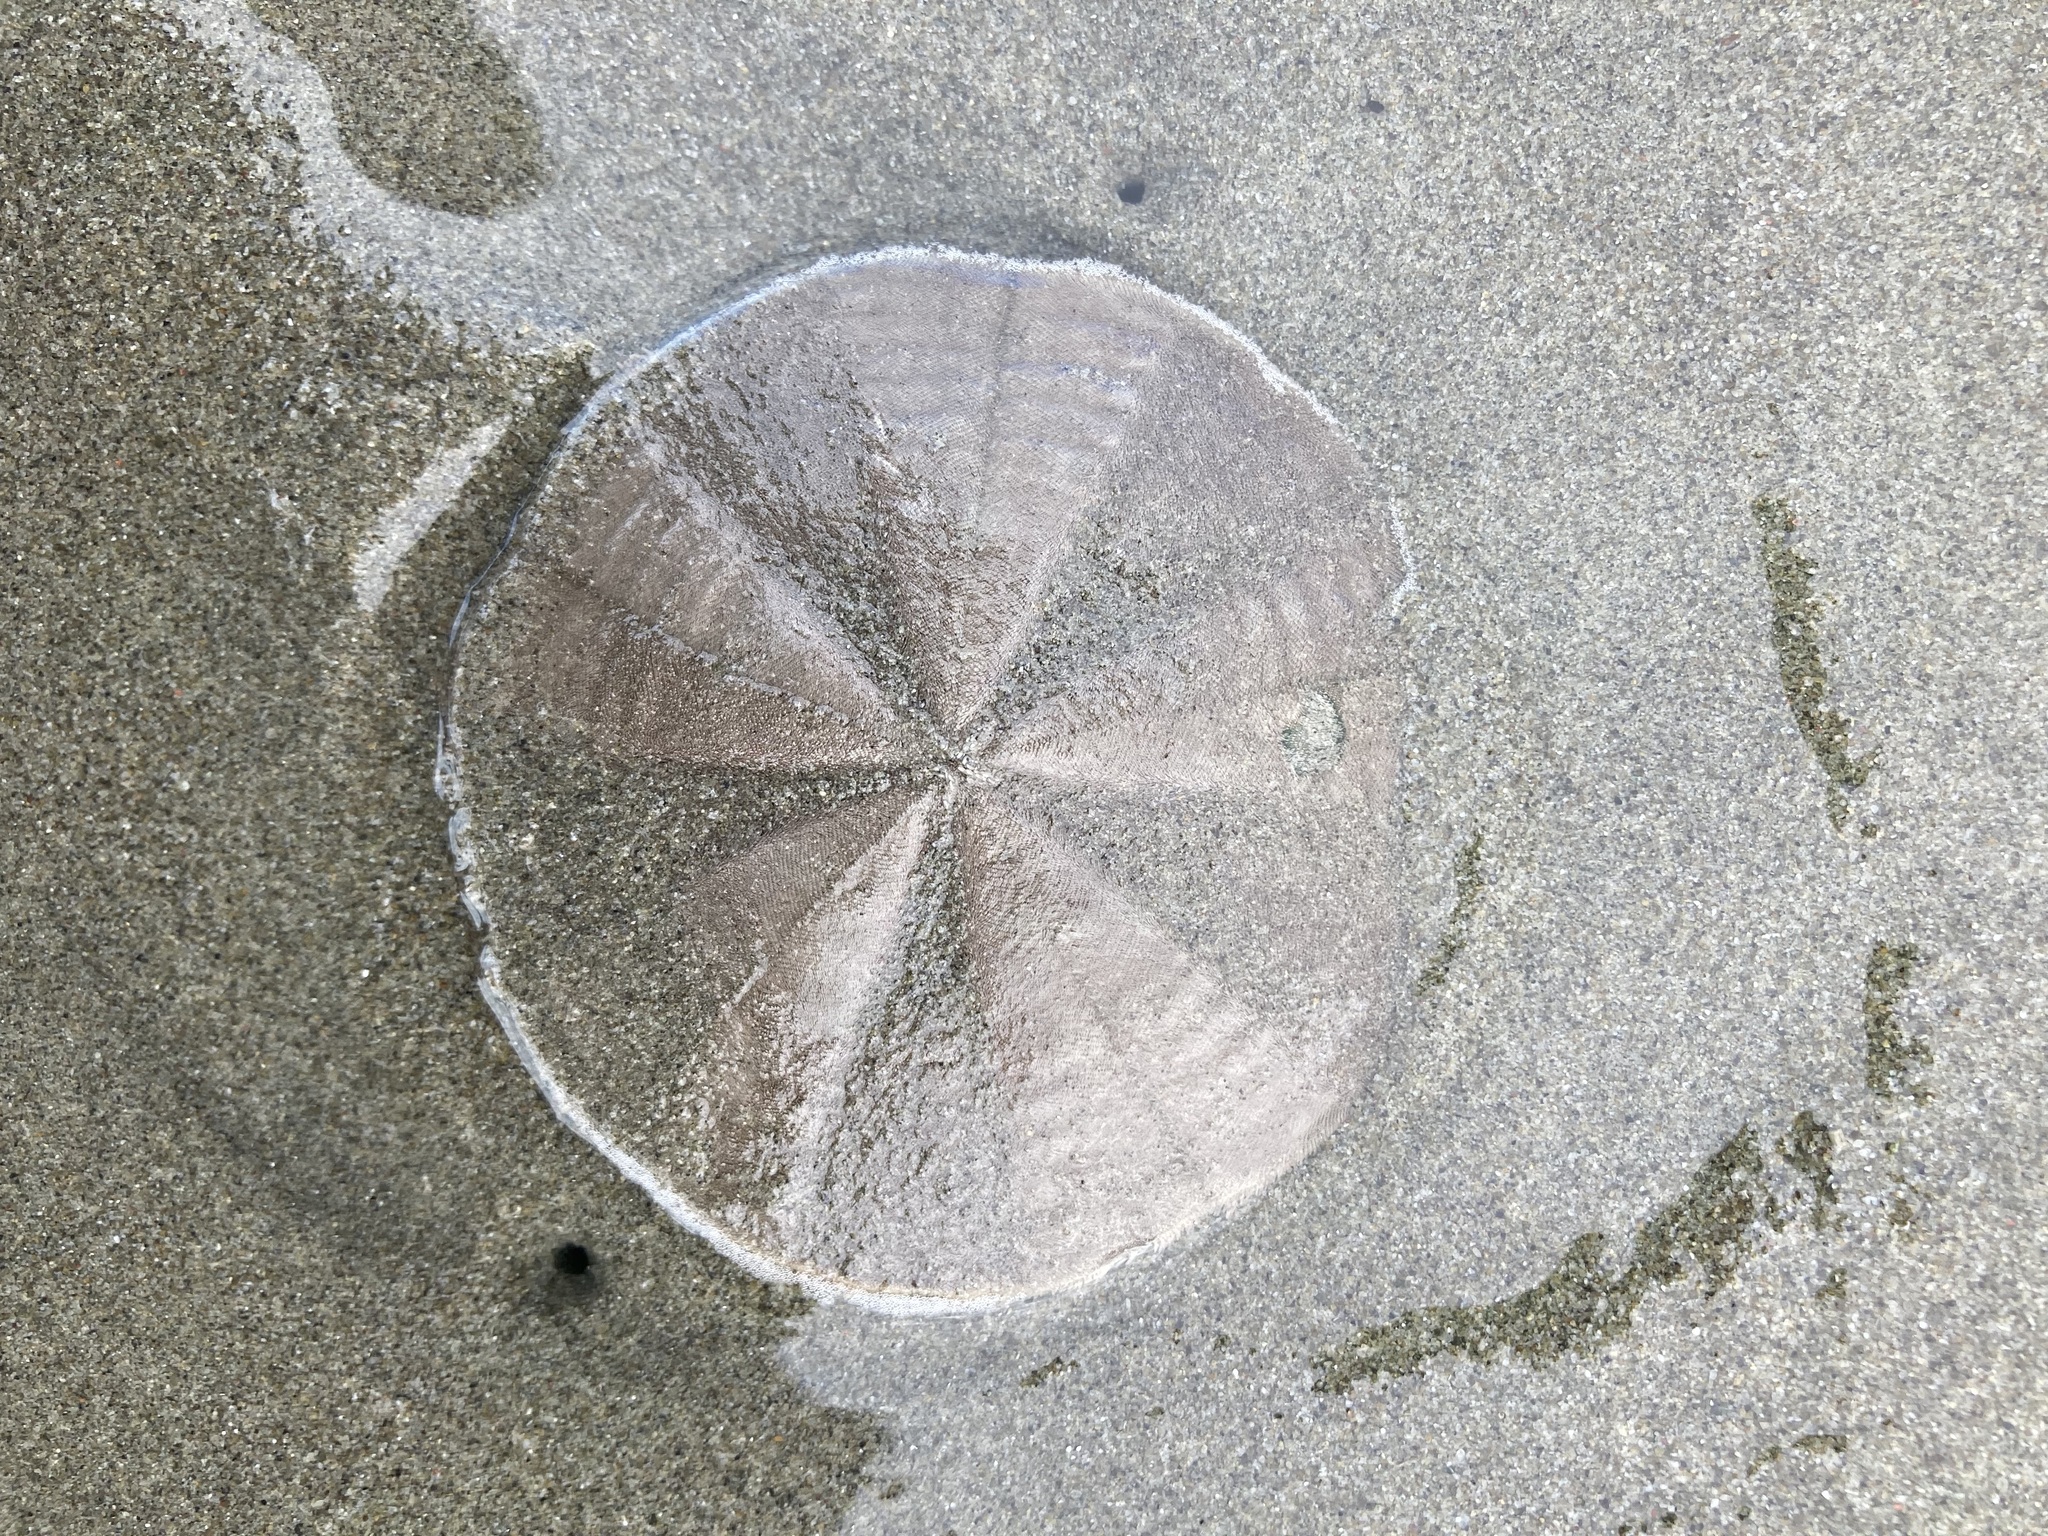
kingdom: Animalia
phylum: Echinodermata
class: Echinoidea
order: Clypeasteroida
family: Clypeasteridae
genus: Fellaster
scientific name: Fellaster zelandiae
